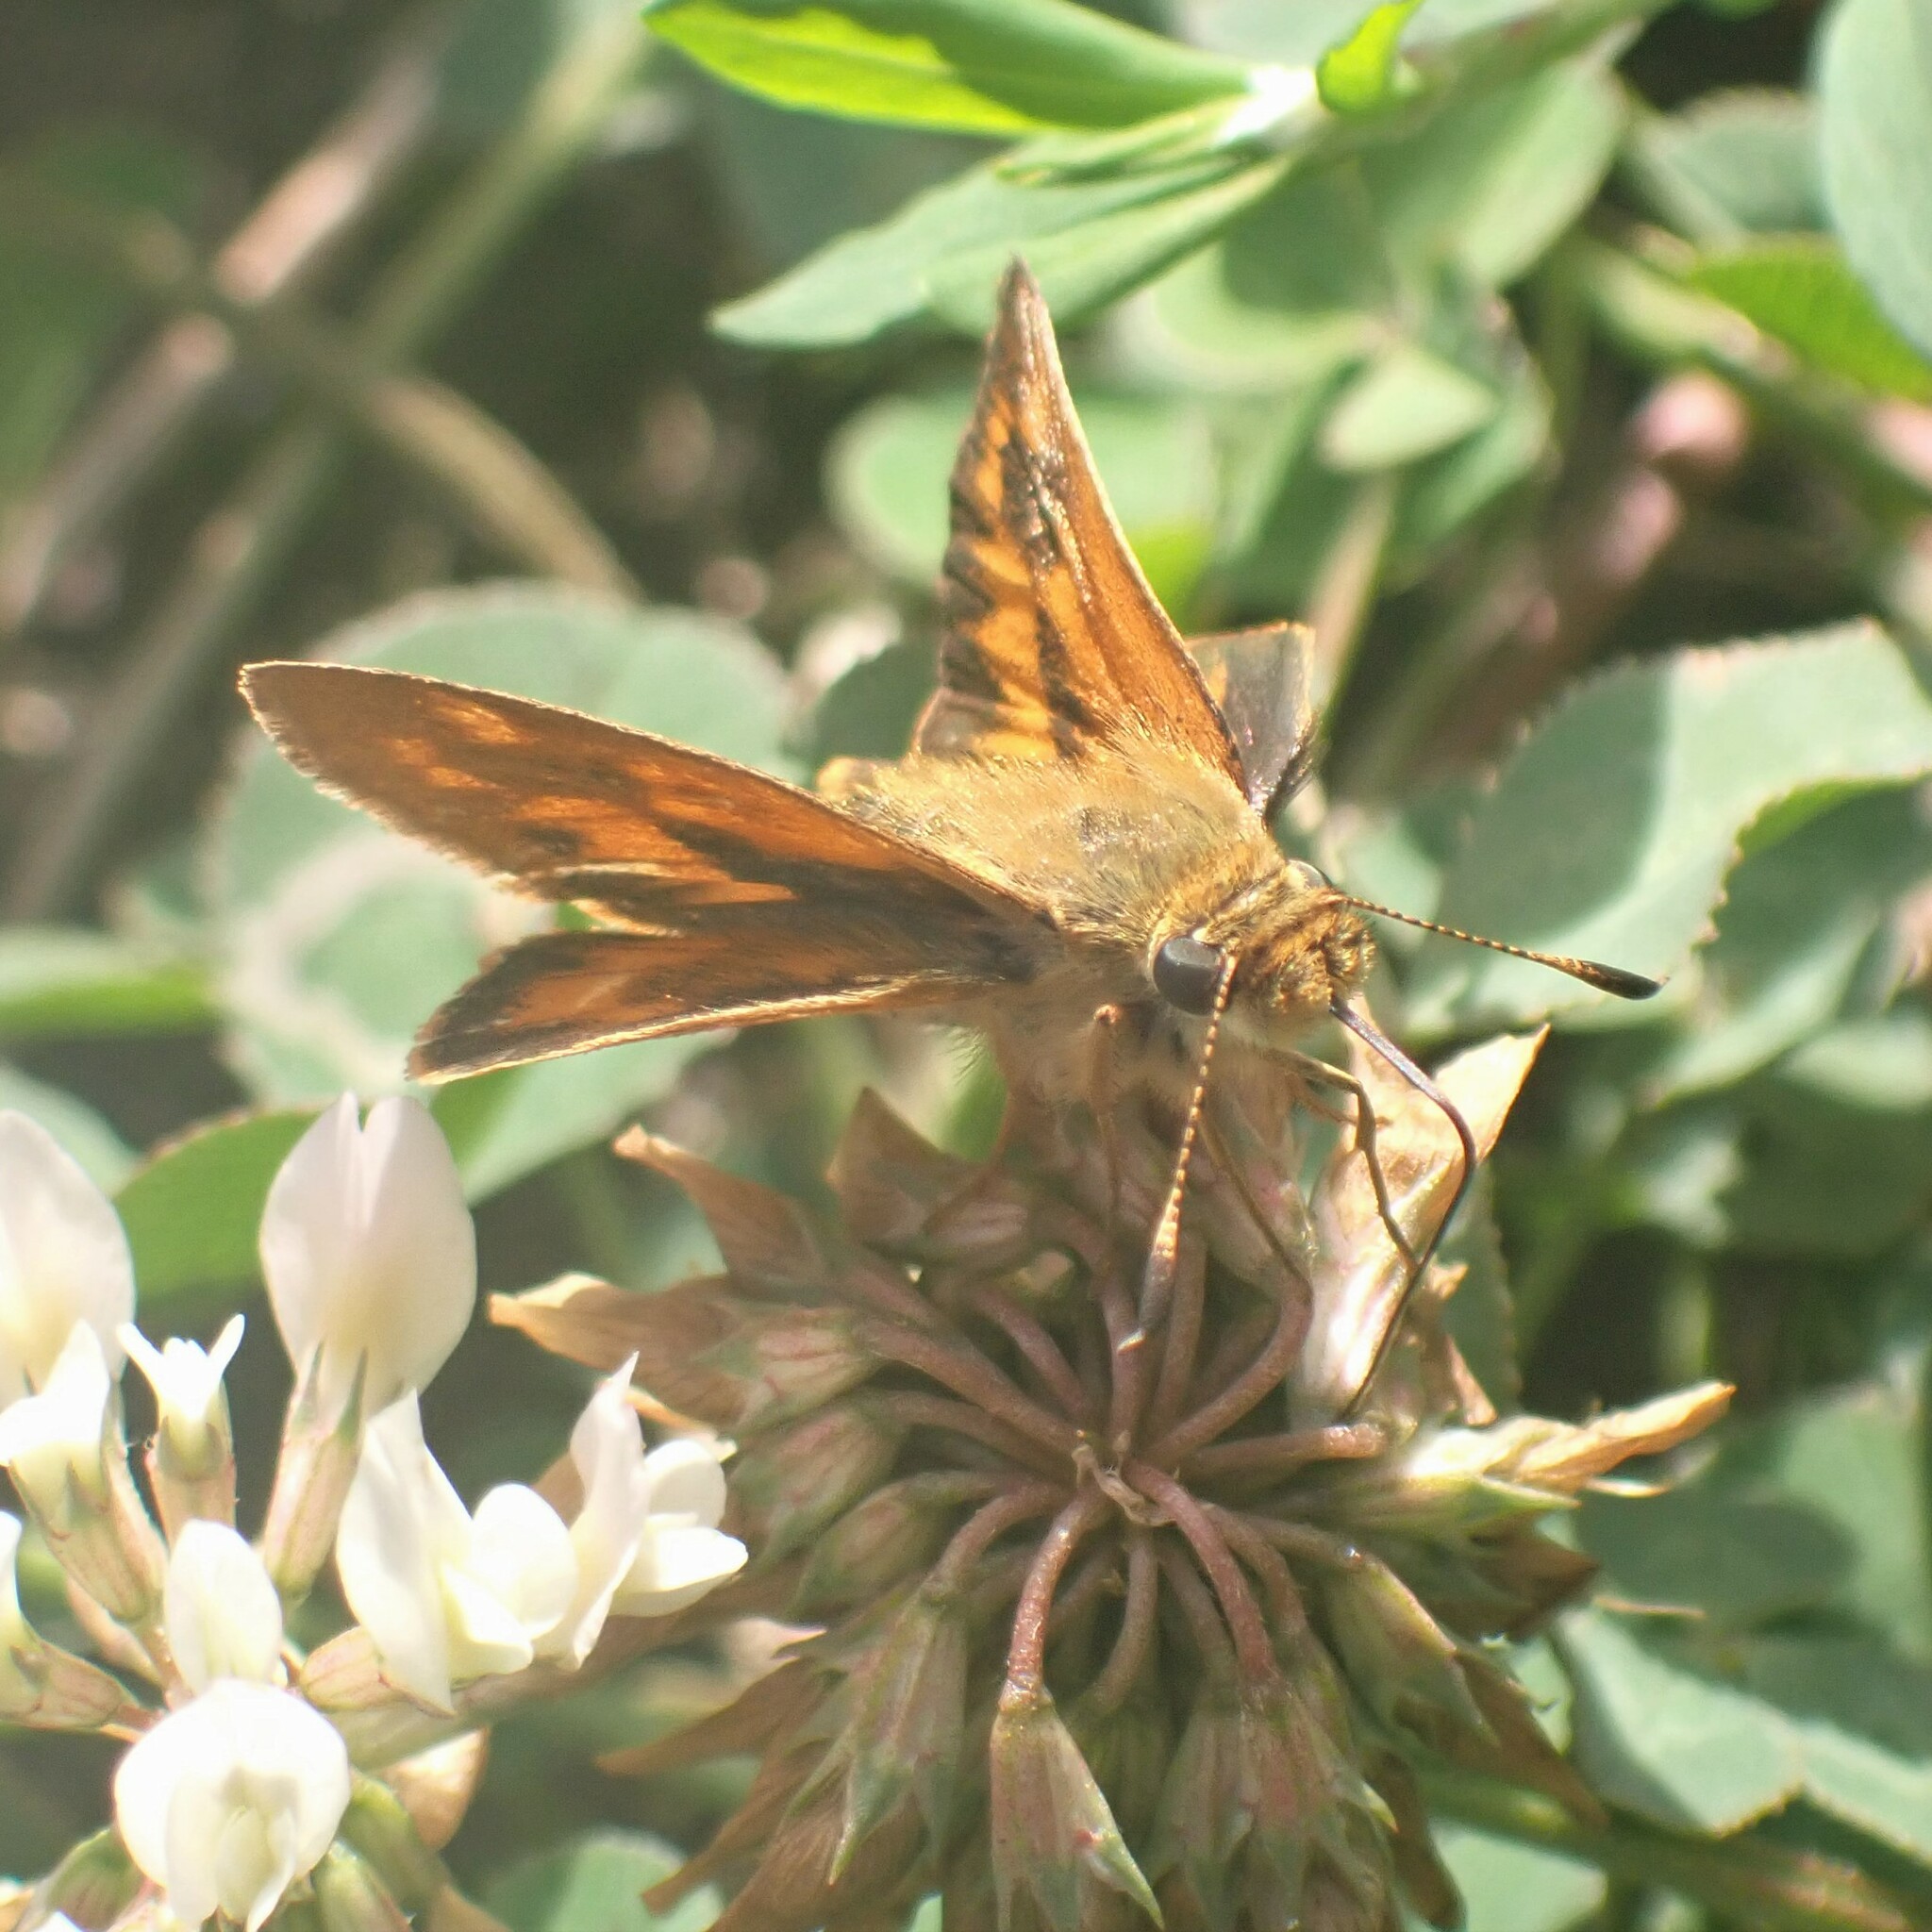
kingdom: Animalia
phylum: Arthropoda
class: Insecta
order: Lepidoptera
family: Hesperiidae
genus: Ochlodes
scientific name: Ochlodes sylvanoides
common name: Woodland skipper
